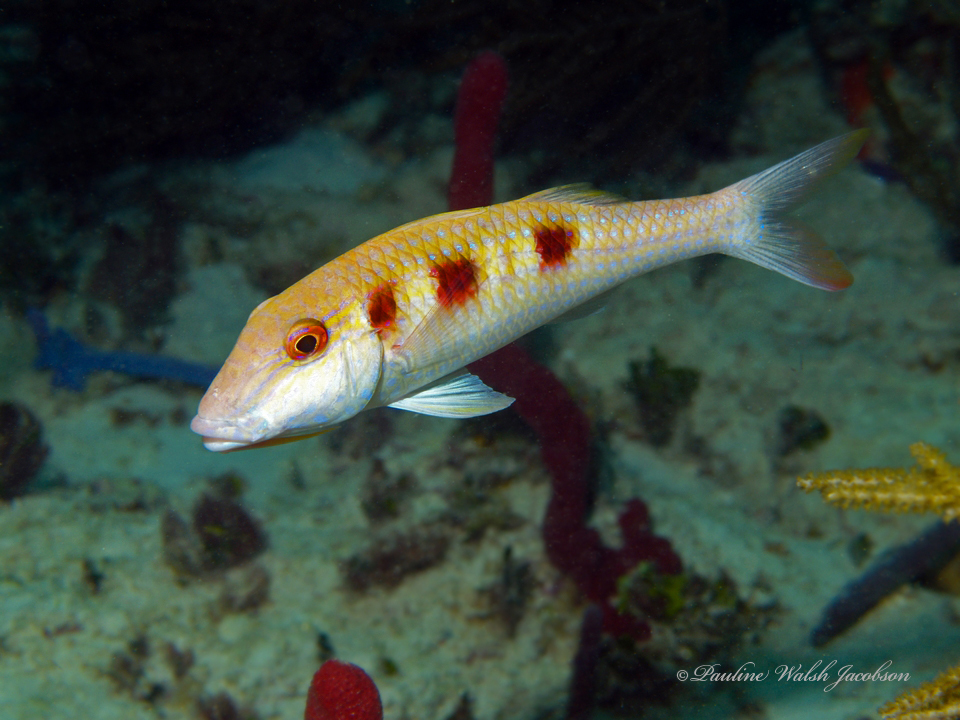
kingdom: Animalia
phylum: Chordata
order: Perciformes
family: Mullidae
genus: Pseudupeneus
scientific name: Pseudupeneus maculatus
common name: Spotted goatfish
